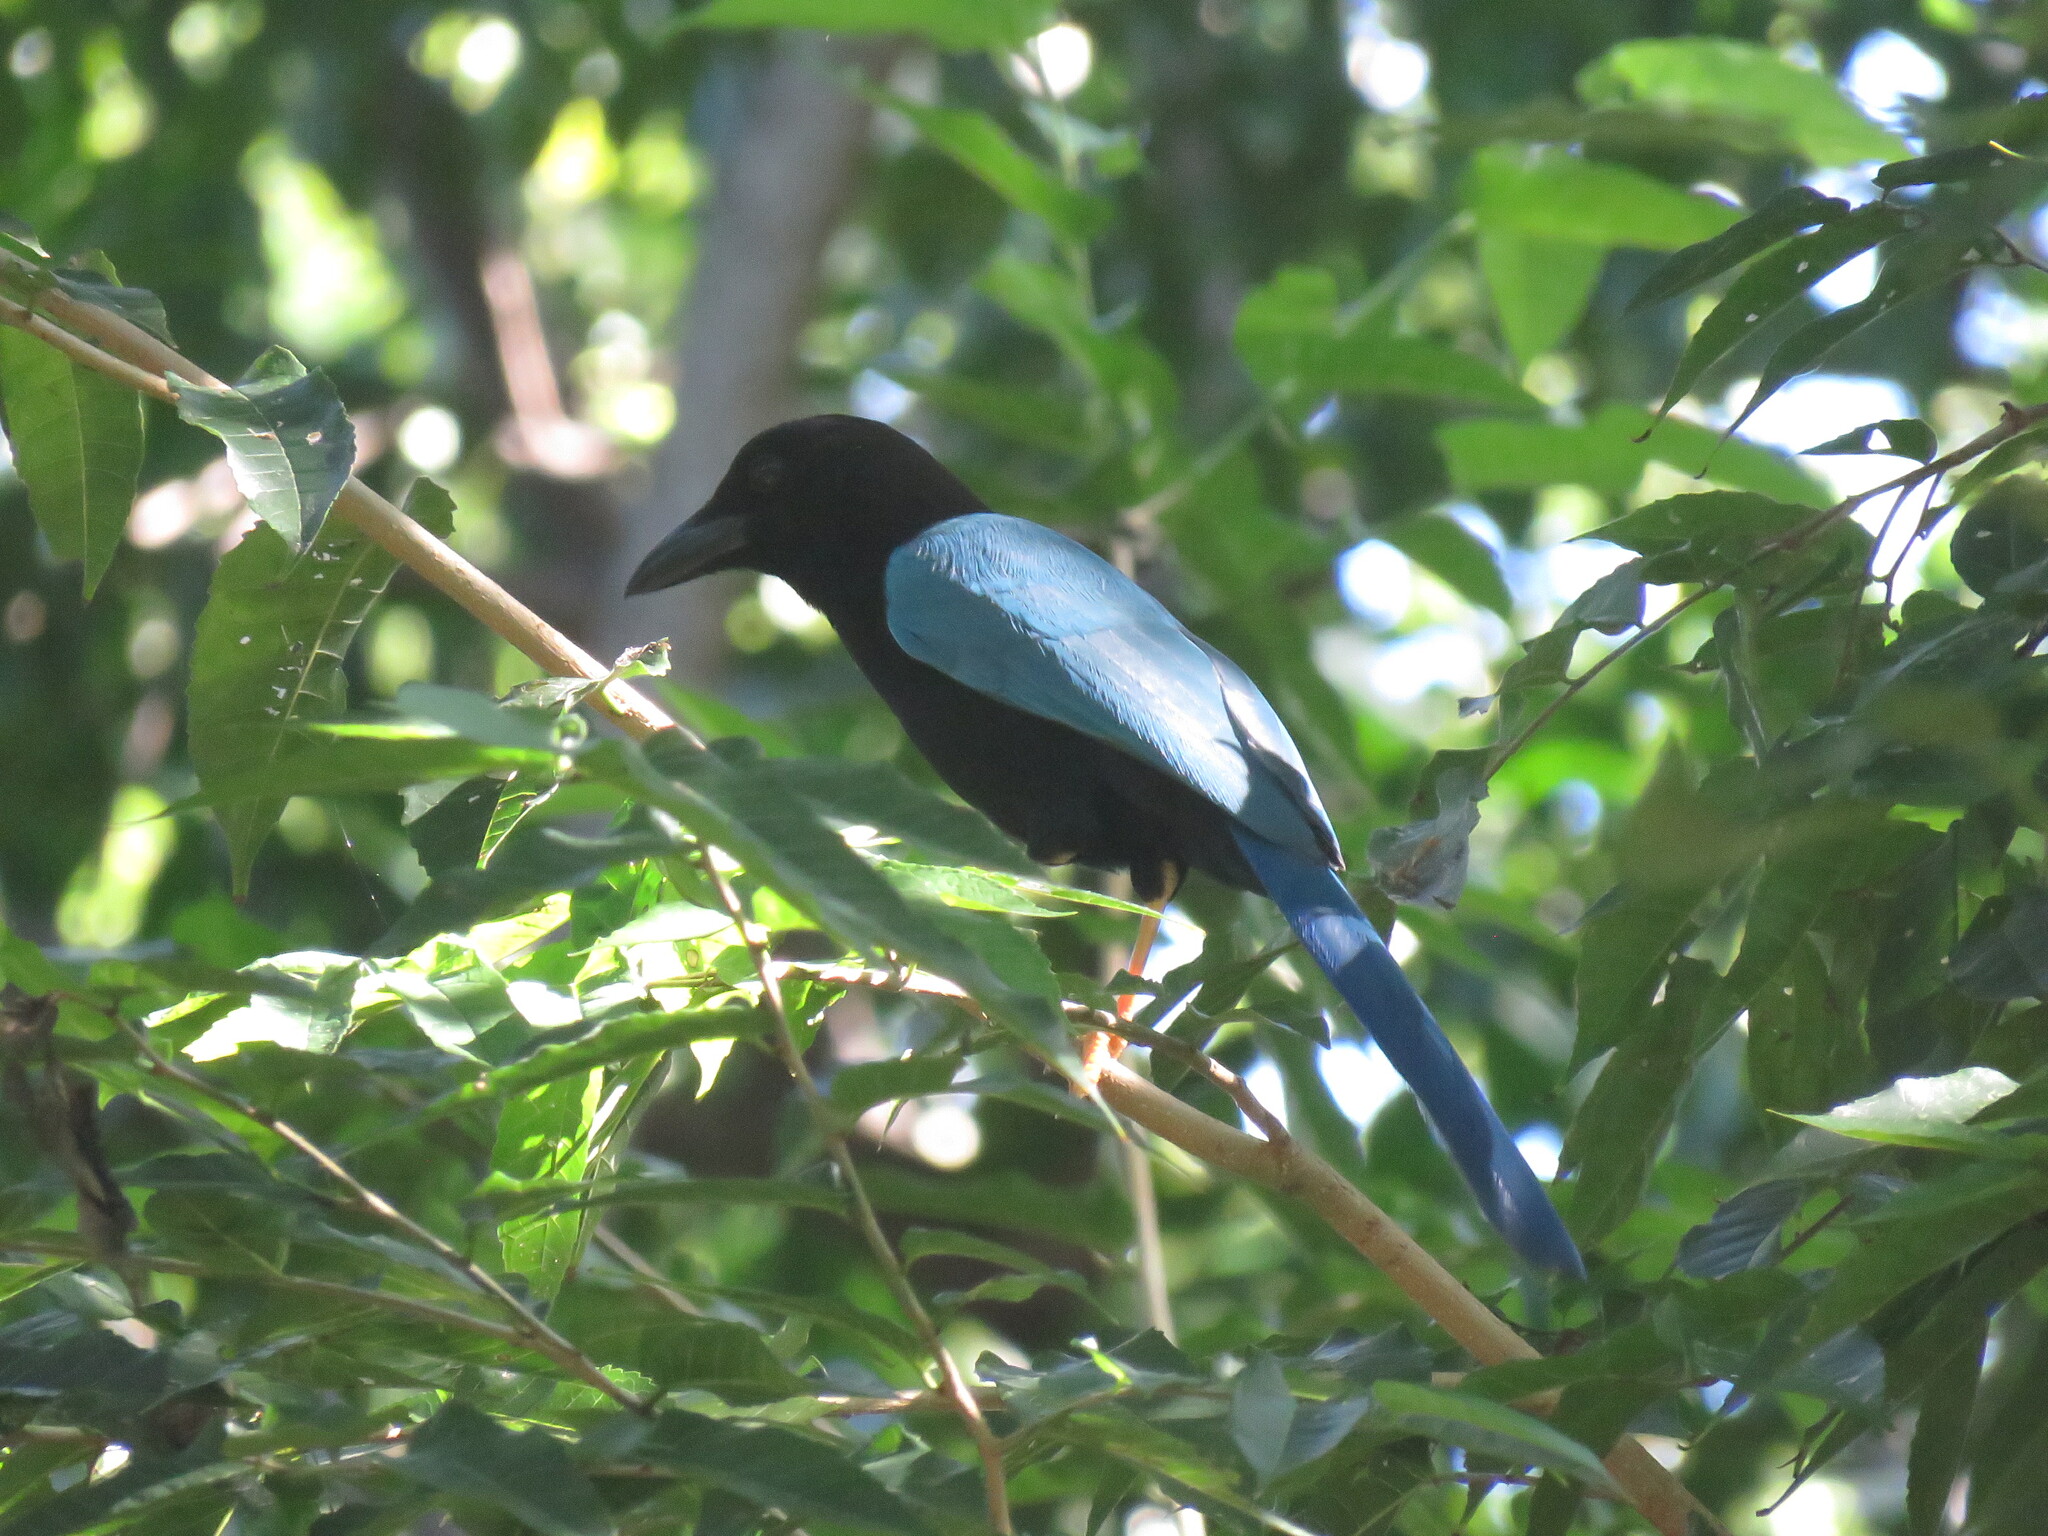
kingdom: Animalia
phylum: Chordata
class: Aves
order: Passeriformes
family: Corvidae
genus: Cyanocorax
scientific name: Cyanocorax yucatanicus
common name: Yucatan jay
